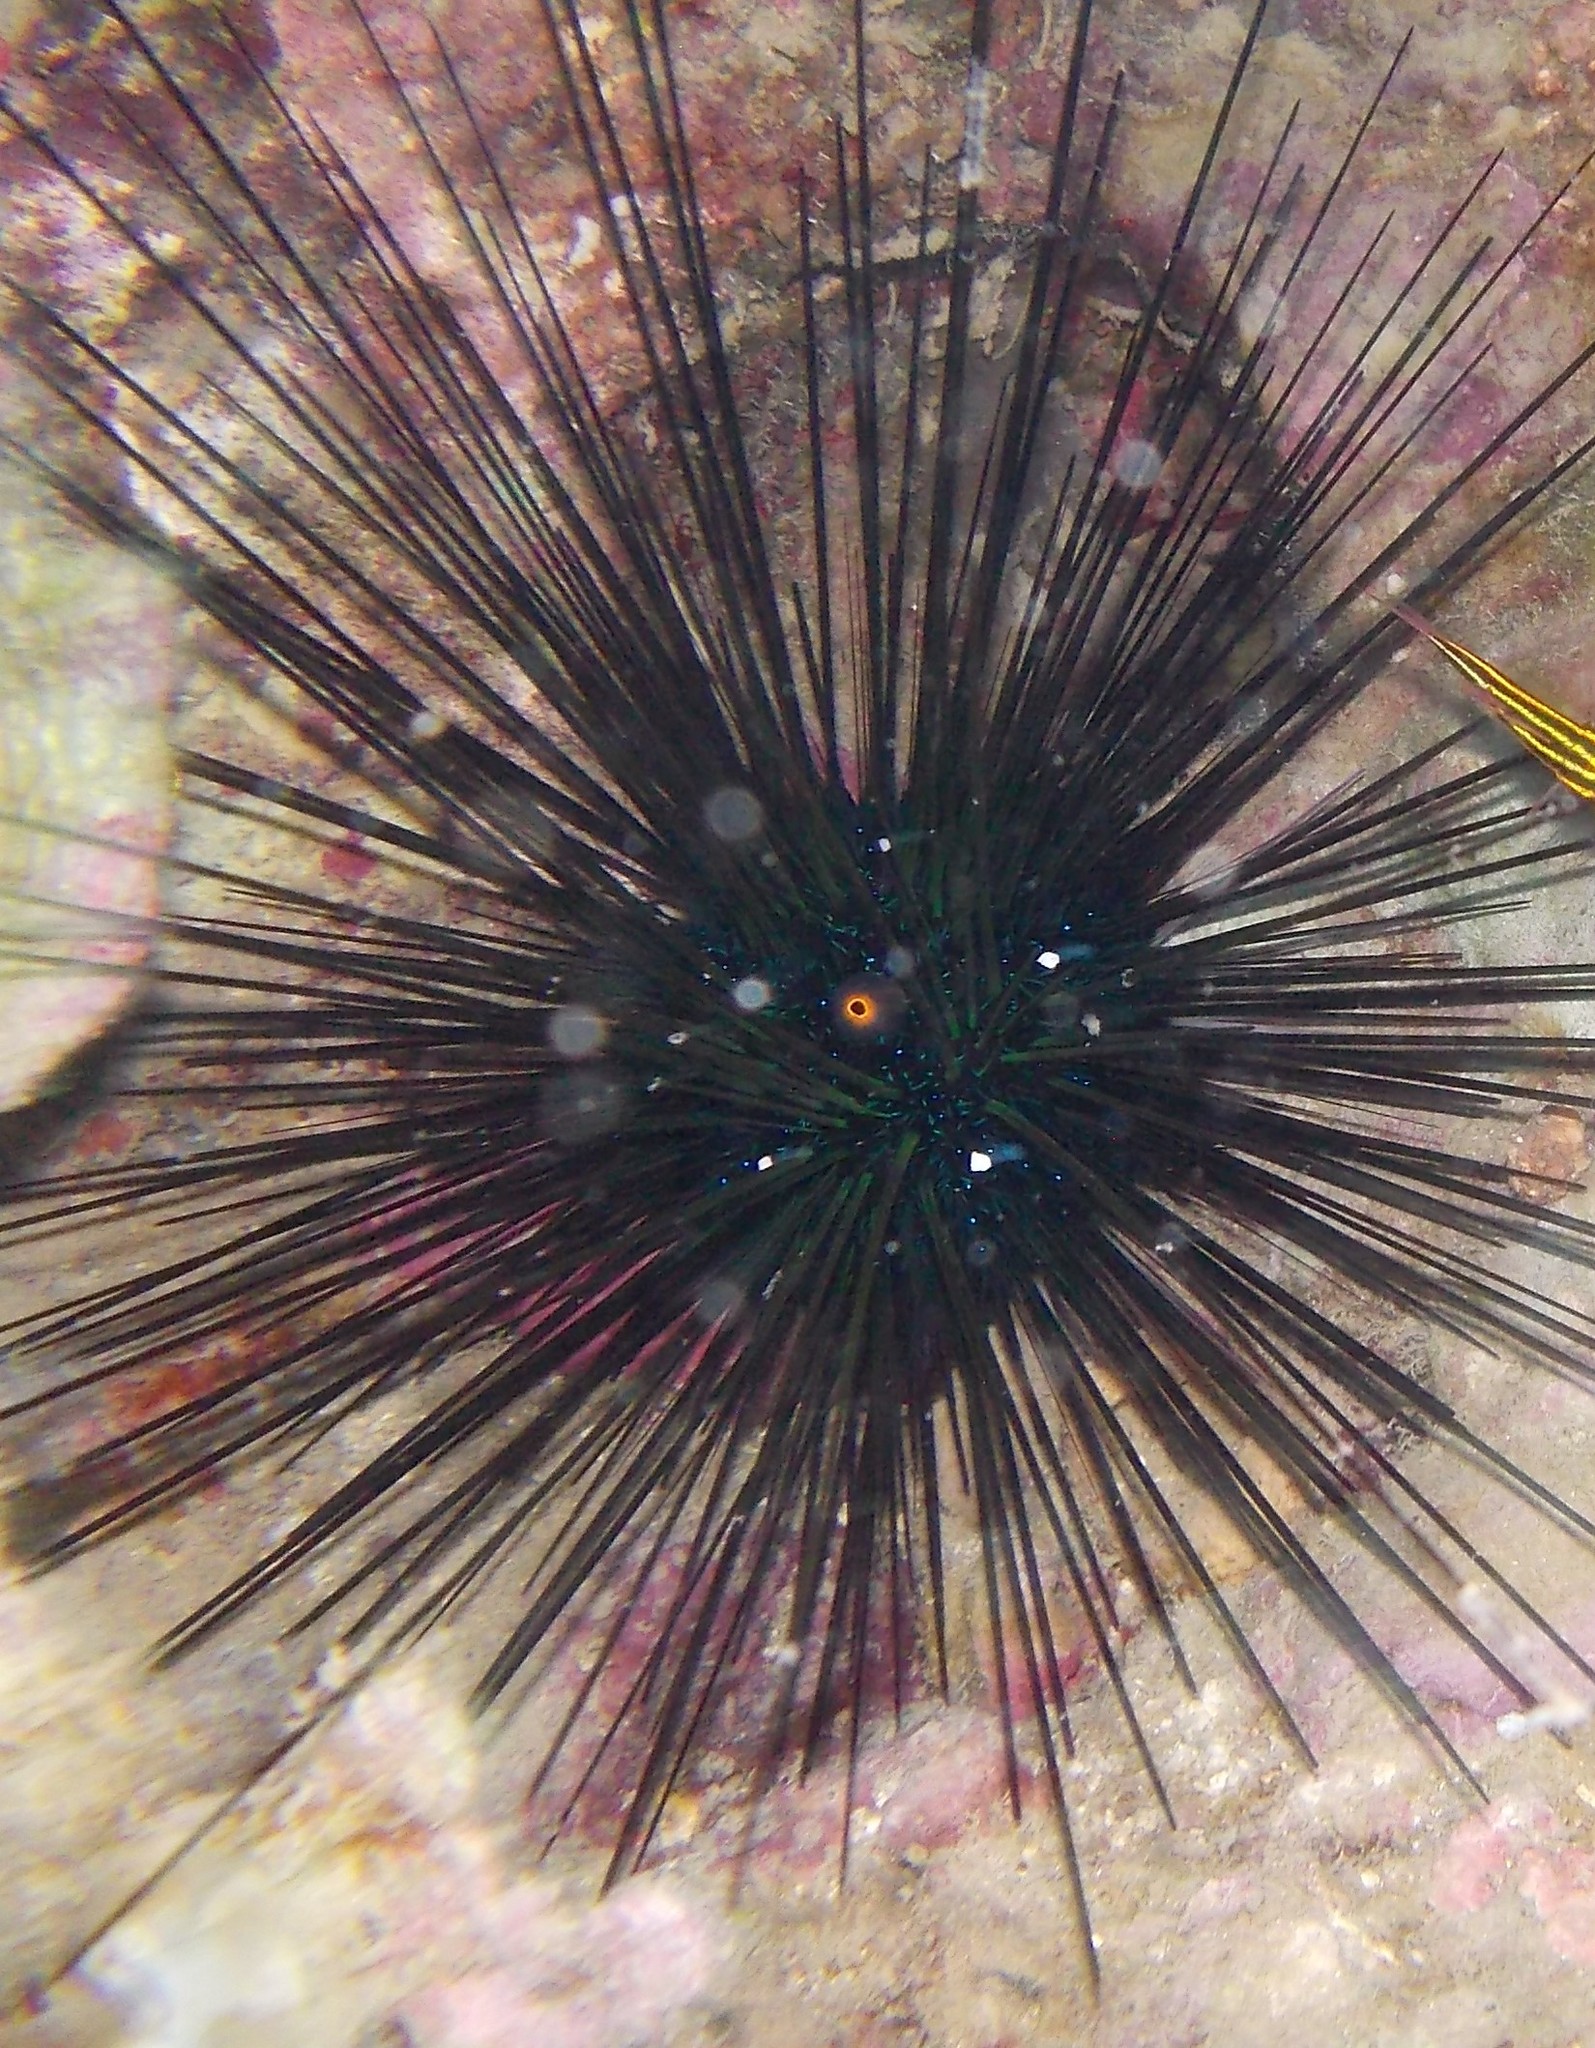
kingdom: Animalia
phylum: Echinodermata
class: Echinoidea
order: Diadematoida
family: Diadematidae
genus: Diadema
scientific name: Diadema setosum
